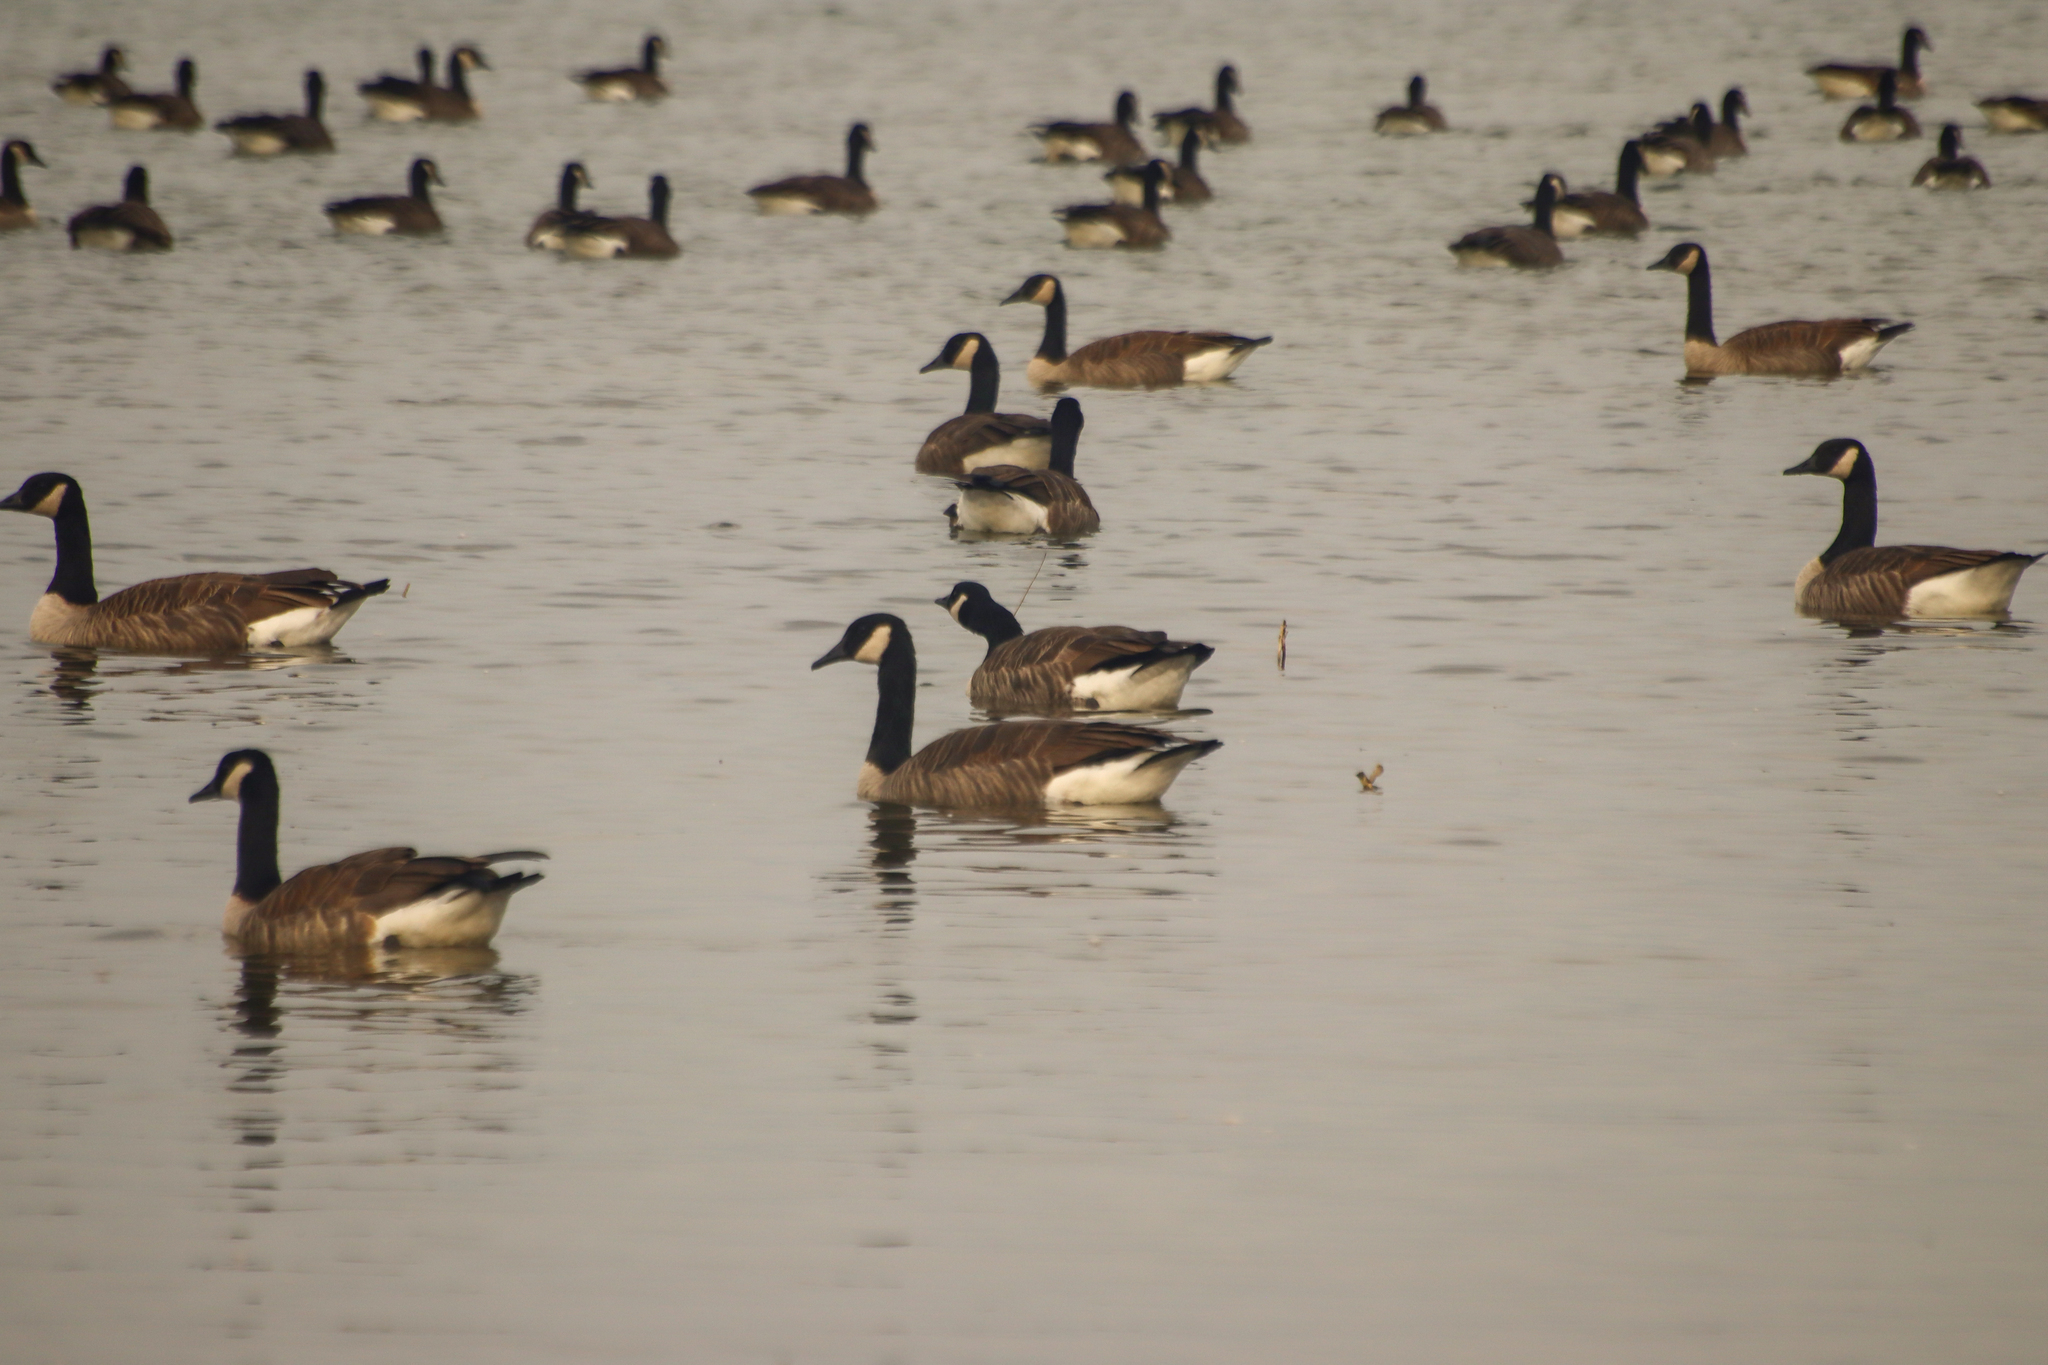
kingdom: Animalia
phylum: Chordata
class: Aves
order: Anseriformes
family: Anatidae
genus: Branta
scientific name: Branta canadensis
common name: Canada goose
